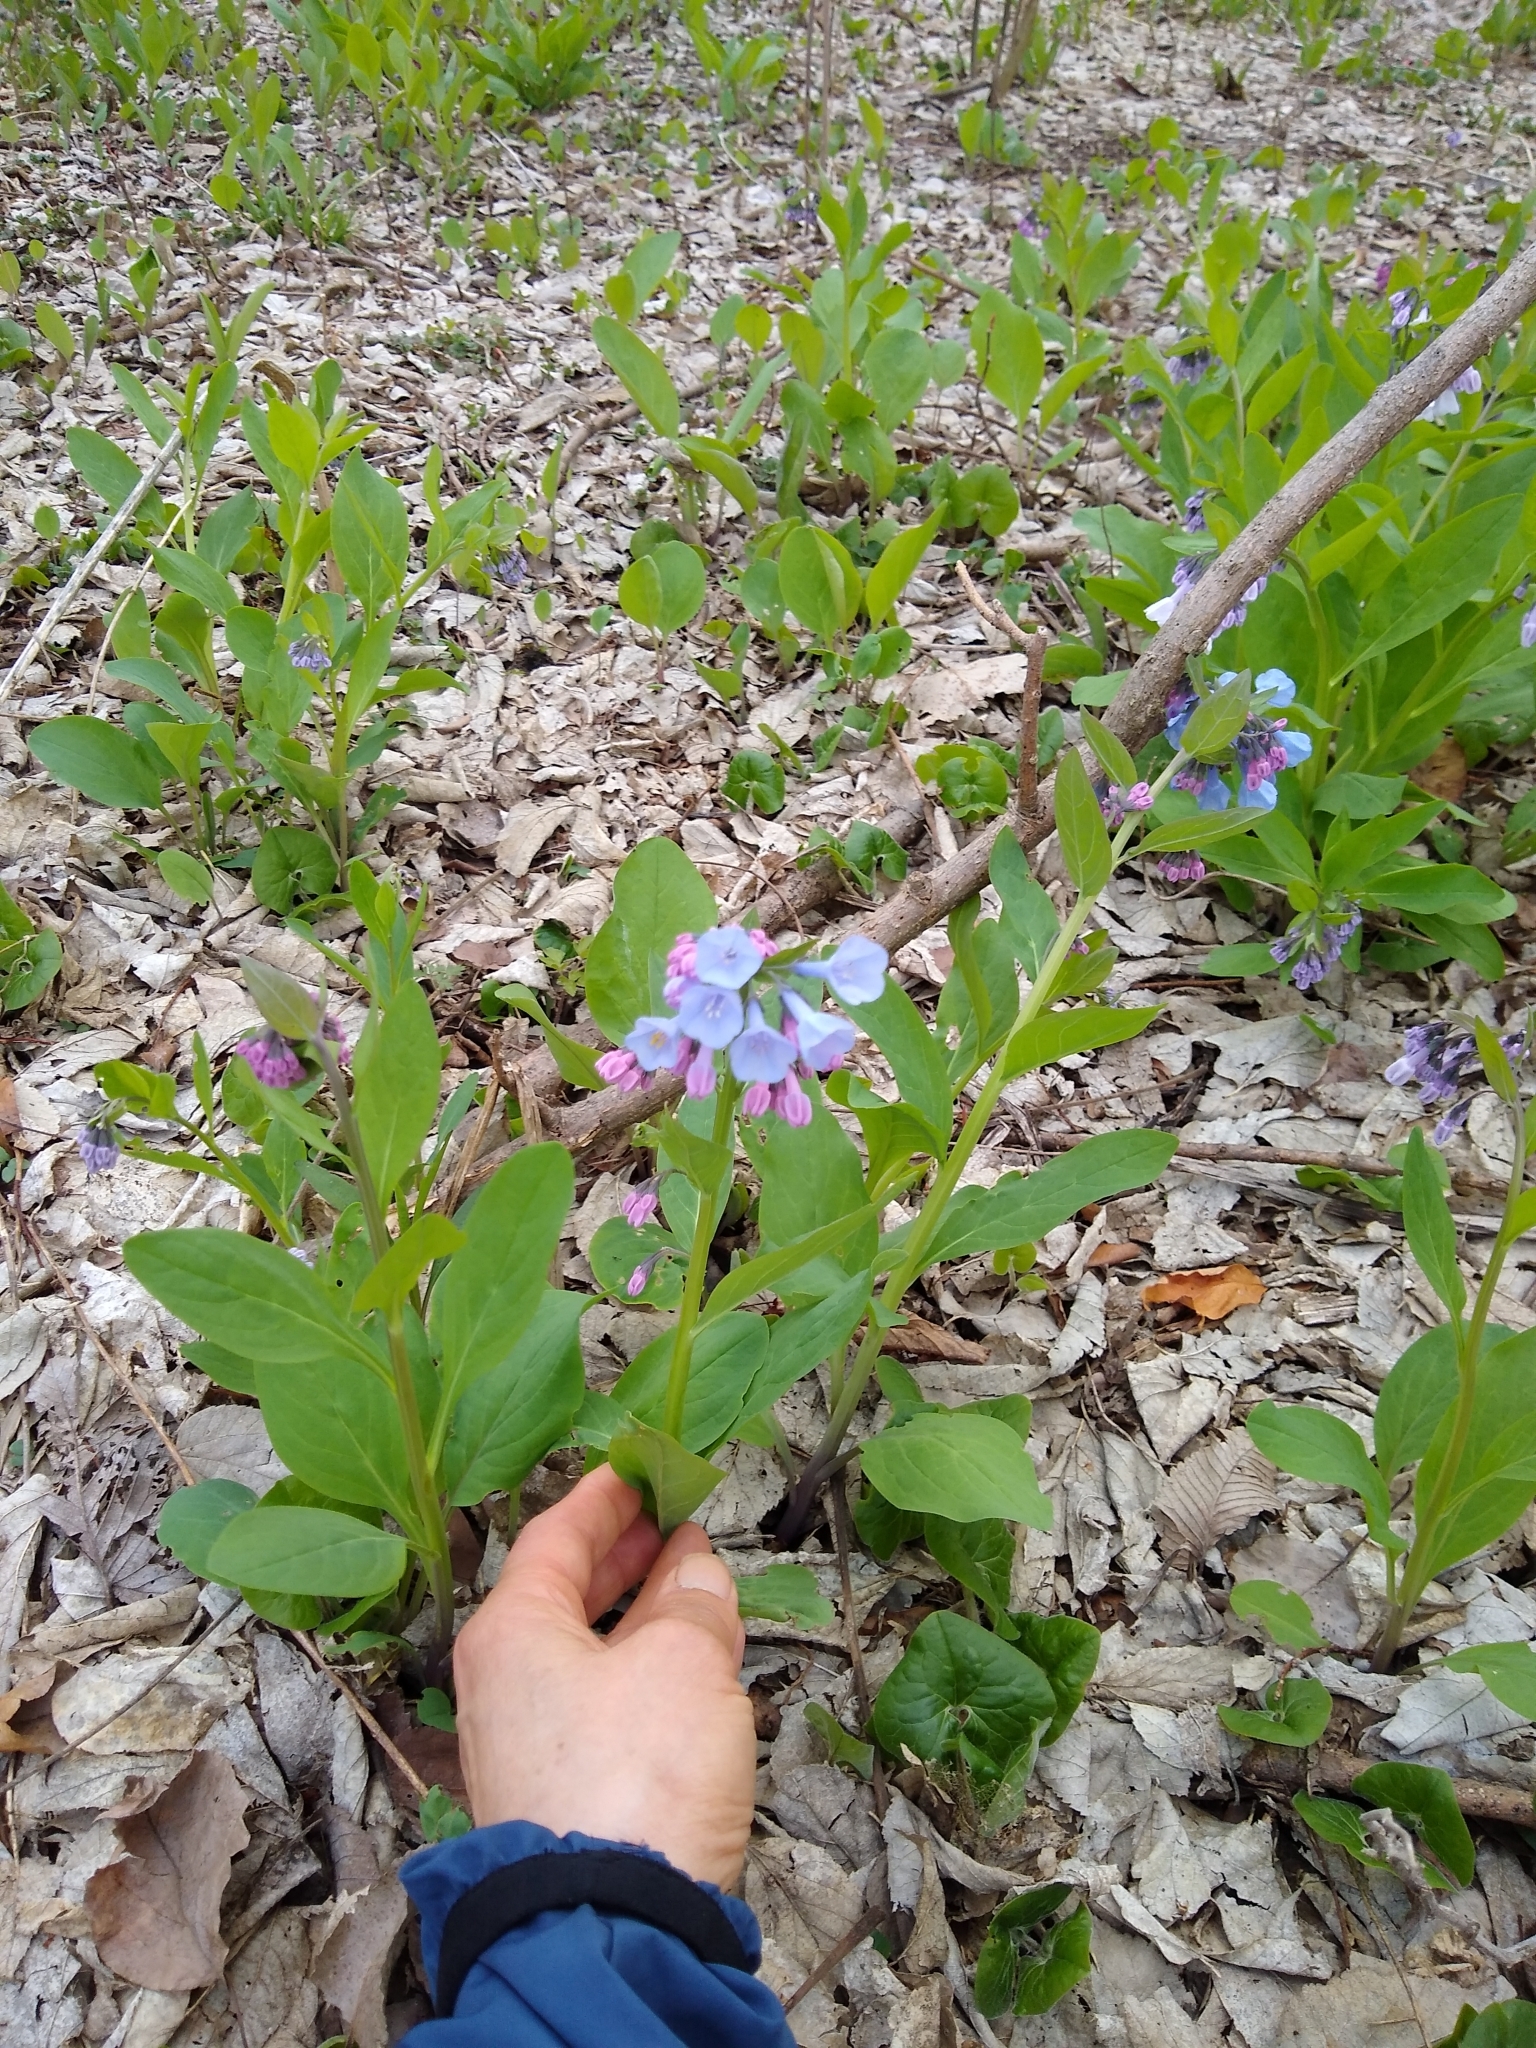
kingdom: Plantae
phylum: Tracheophyta
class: Magnoliopsida
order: Boraginales
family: Boraginaceae
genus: Mertensia
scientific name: Mertensia virginica
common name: Virginia bluebells
